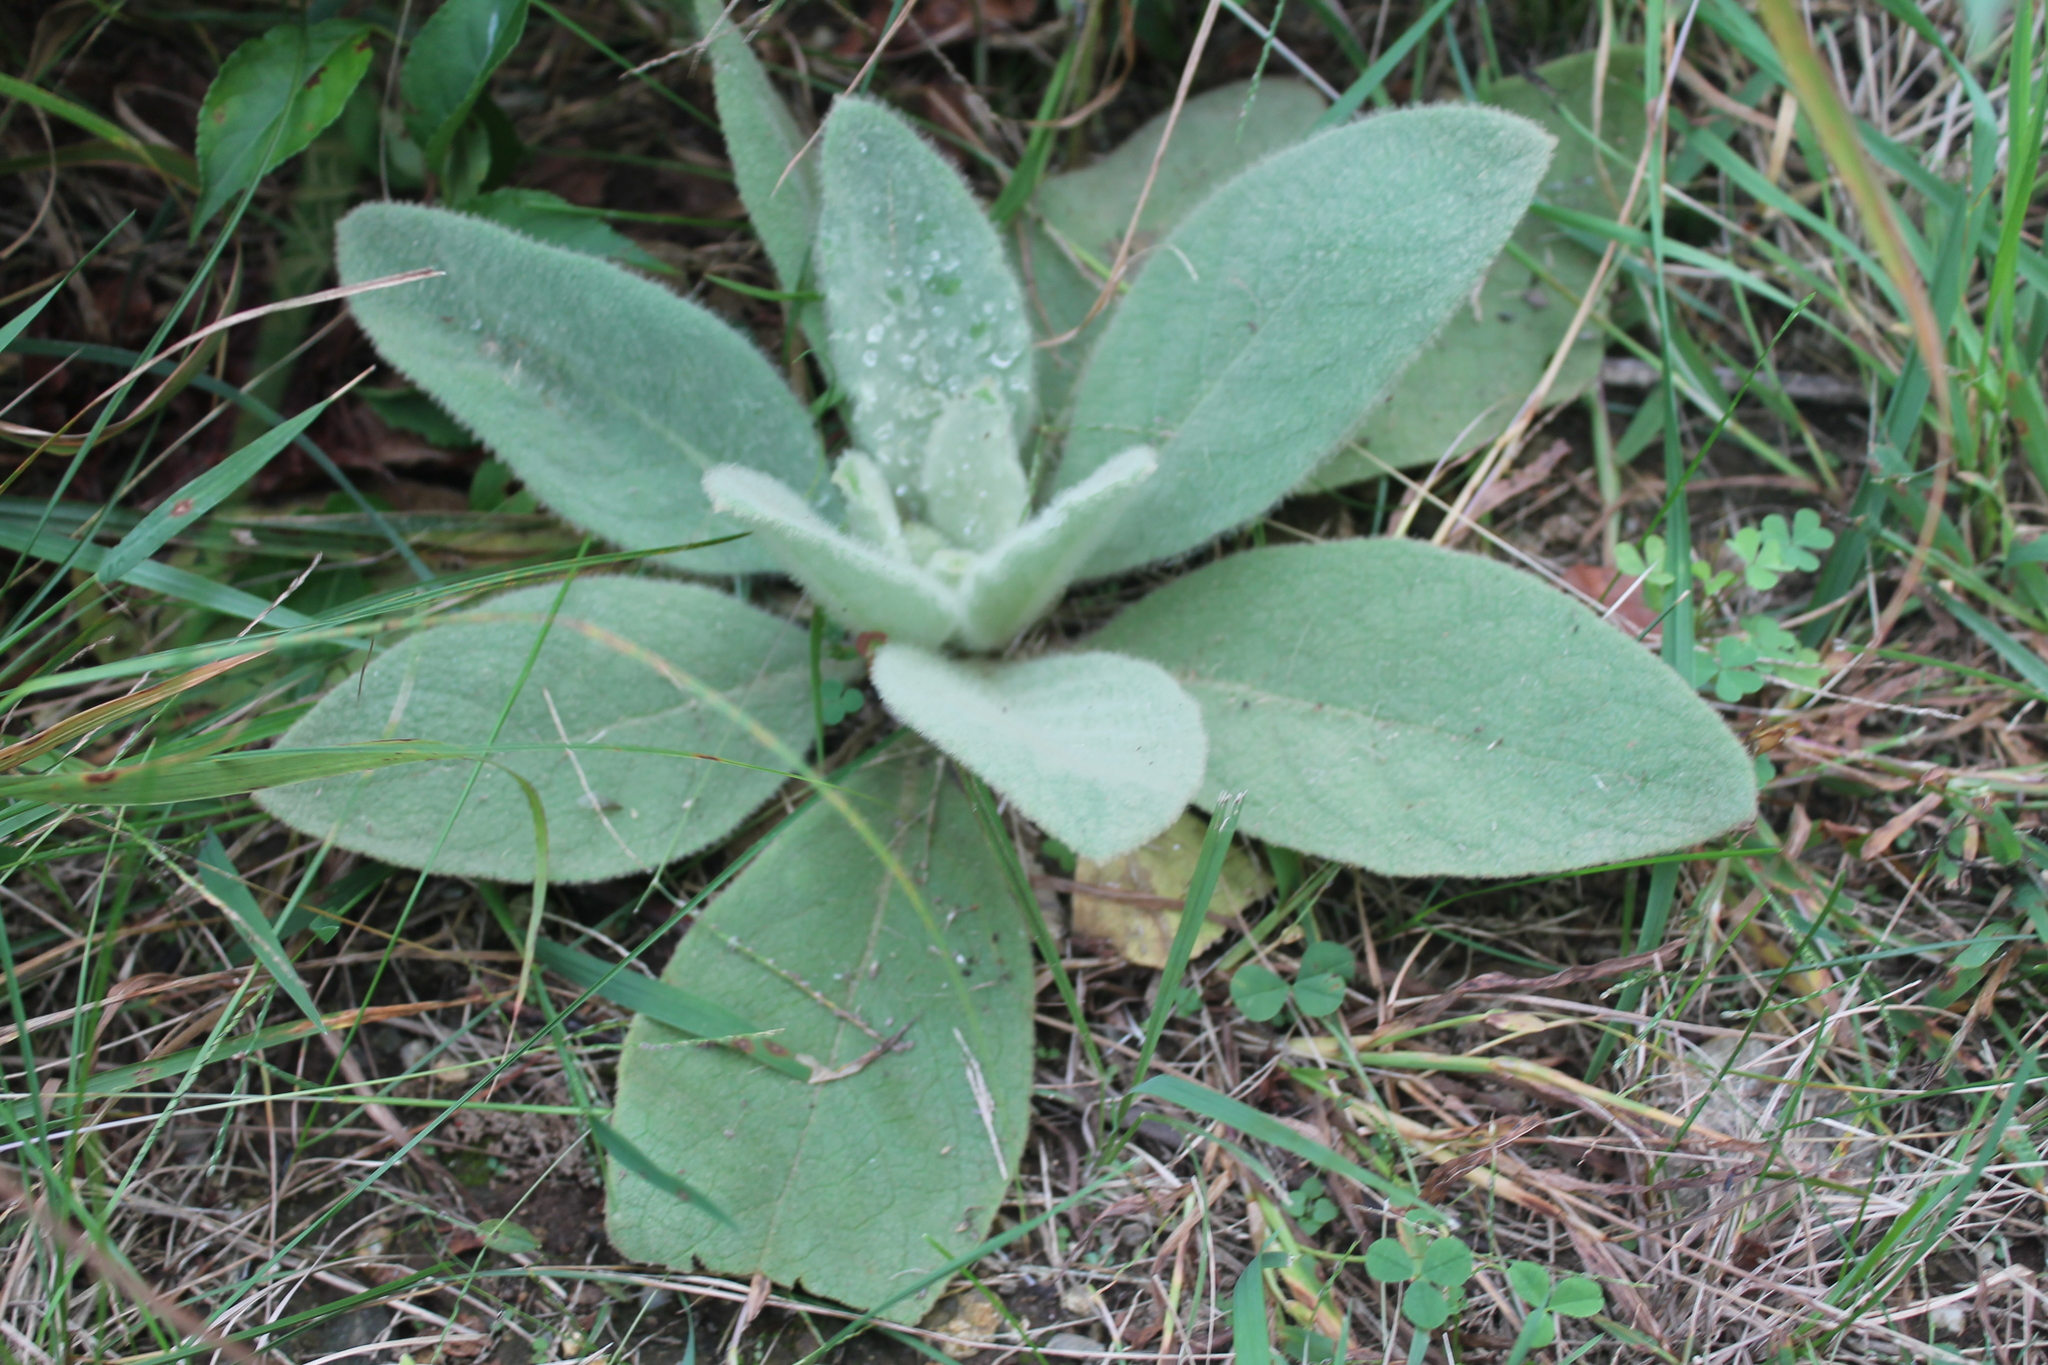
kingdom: Plantae
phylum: Tracheophyta
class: Magnoliopsida
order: Lamiales
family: Scrophulariaceae
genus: Verbascum
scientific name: Verbascum thapsus
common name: Common mullein
